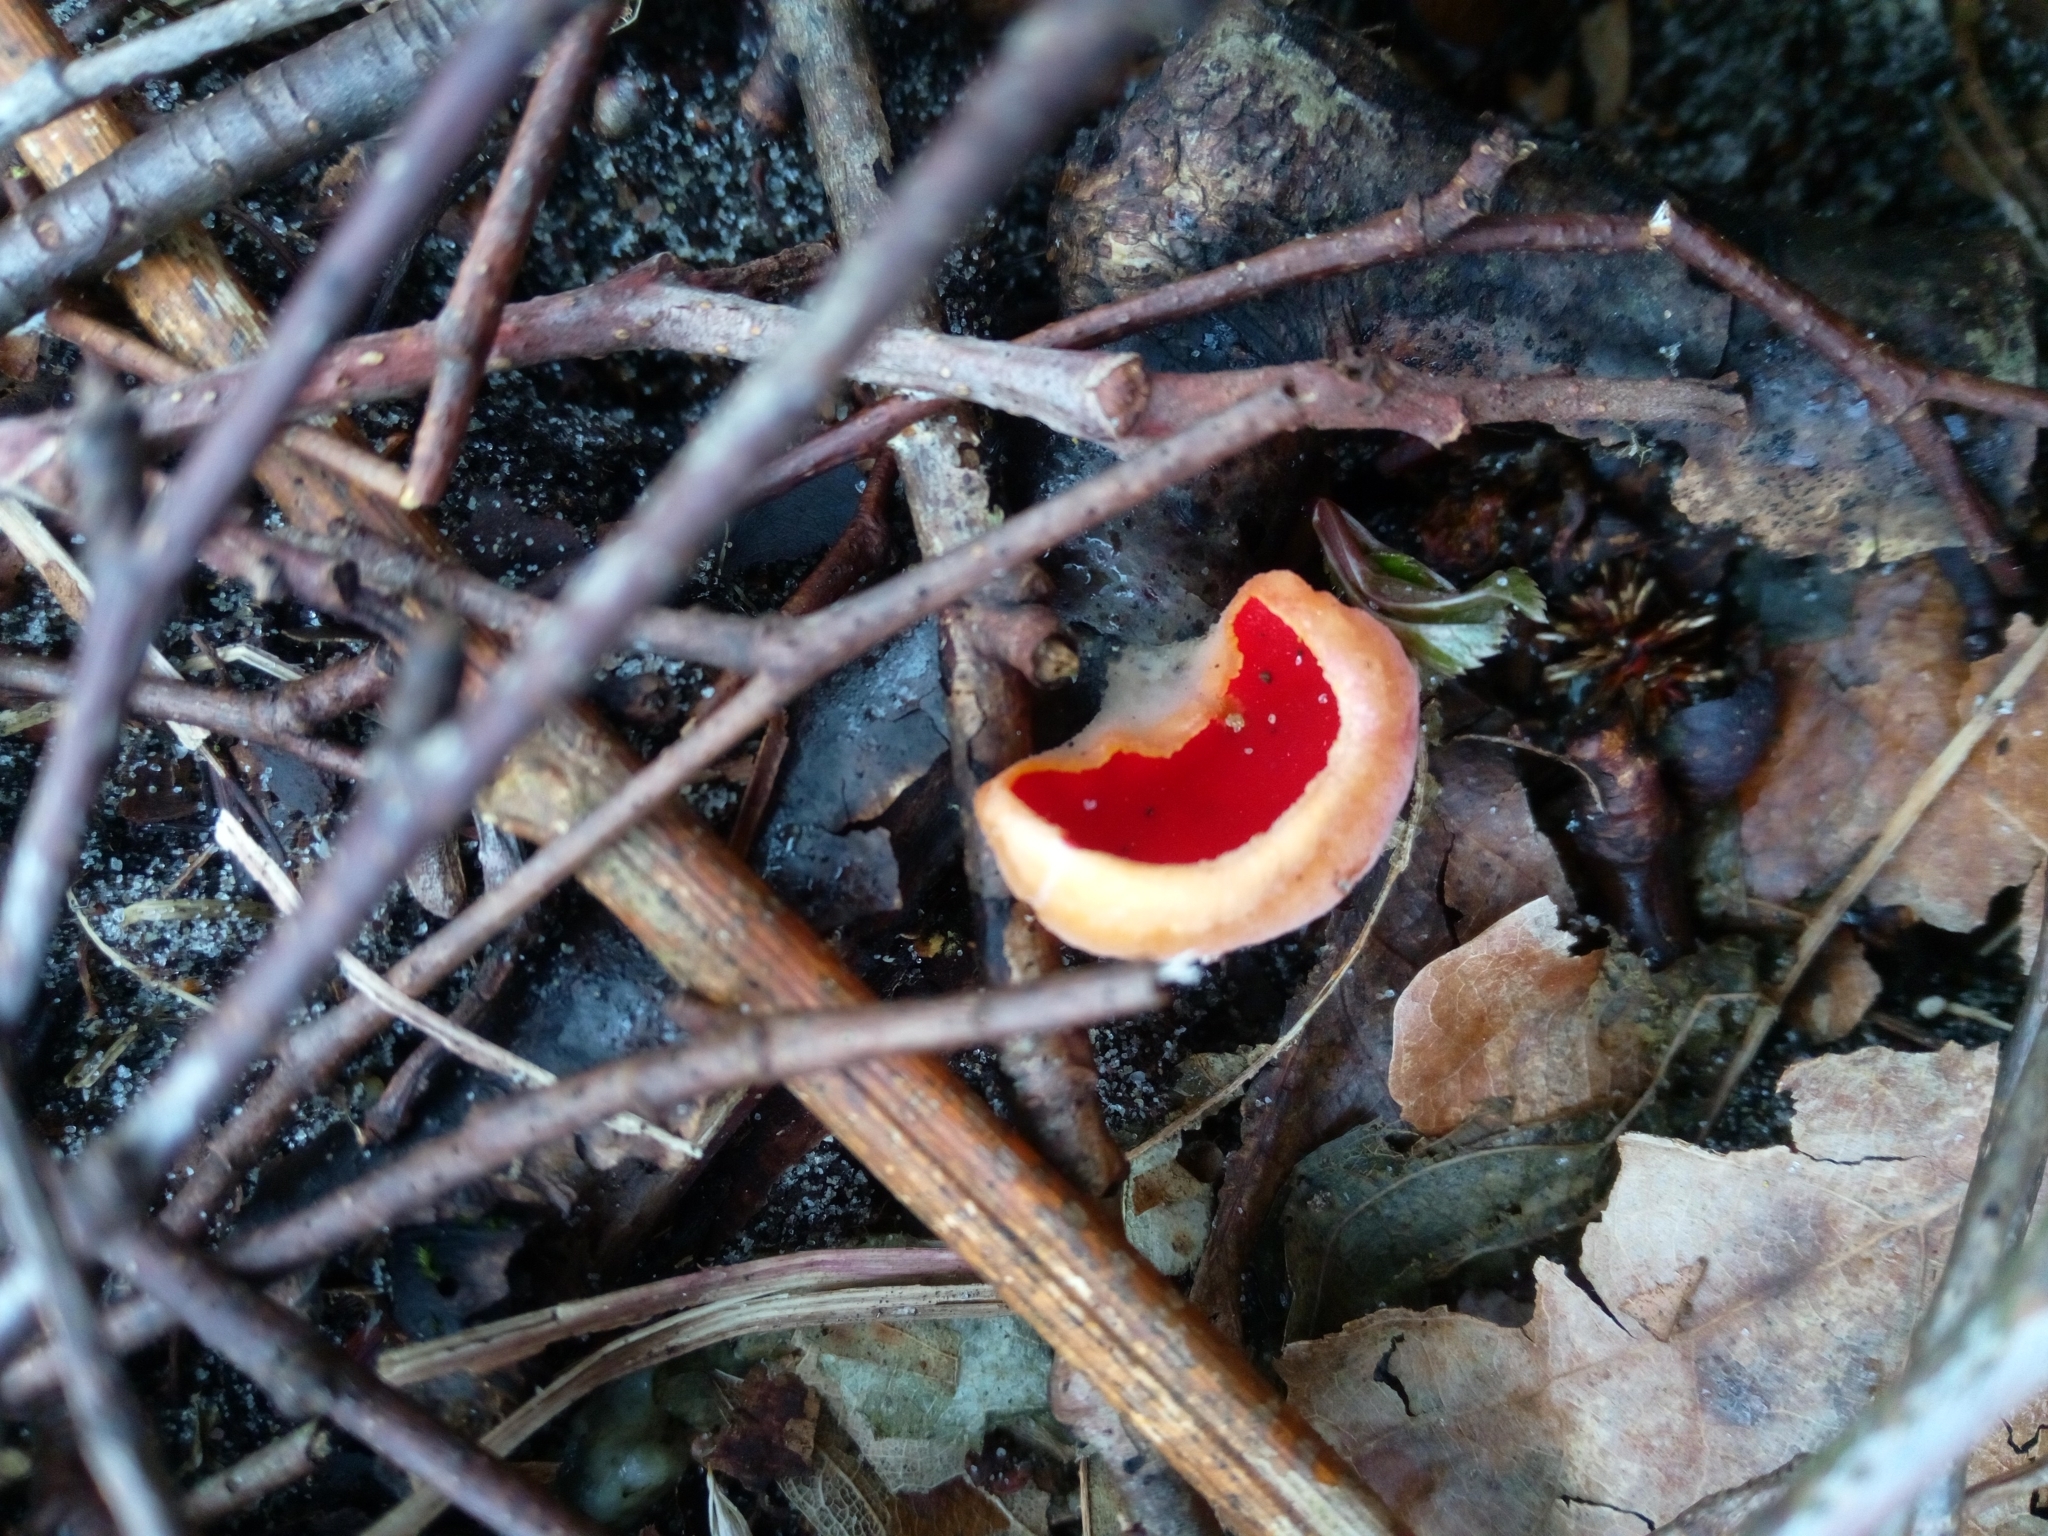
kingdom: Fungi
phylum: Ascomycota
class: Pezizomycetes
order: Pezizales
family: Sarcoscyphaceae
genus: Sarcoscypha
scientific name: Sarcoscypha
